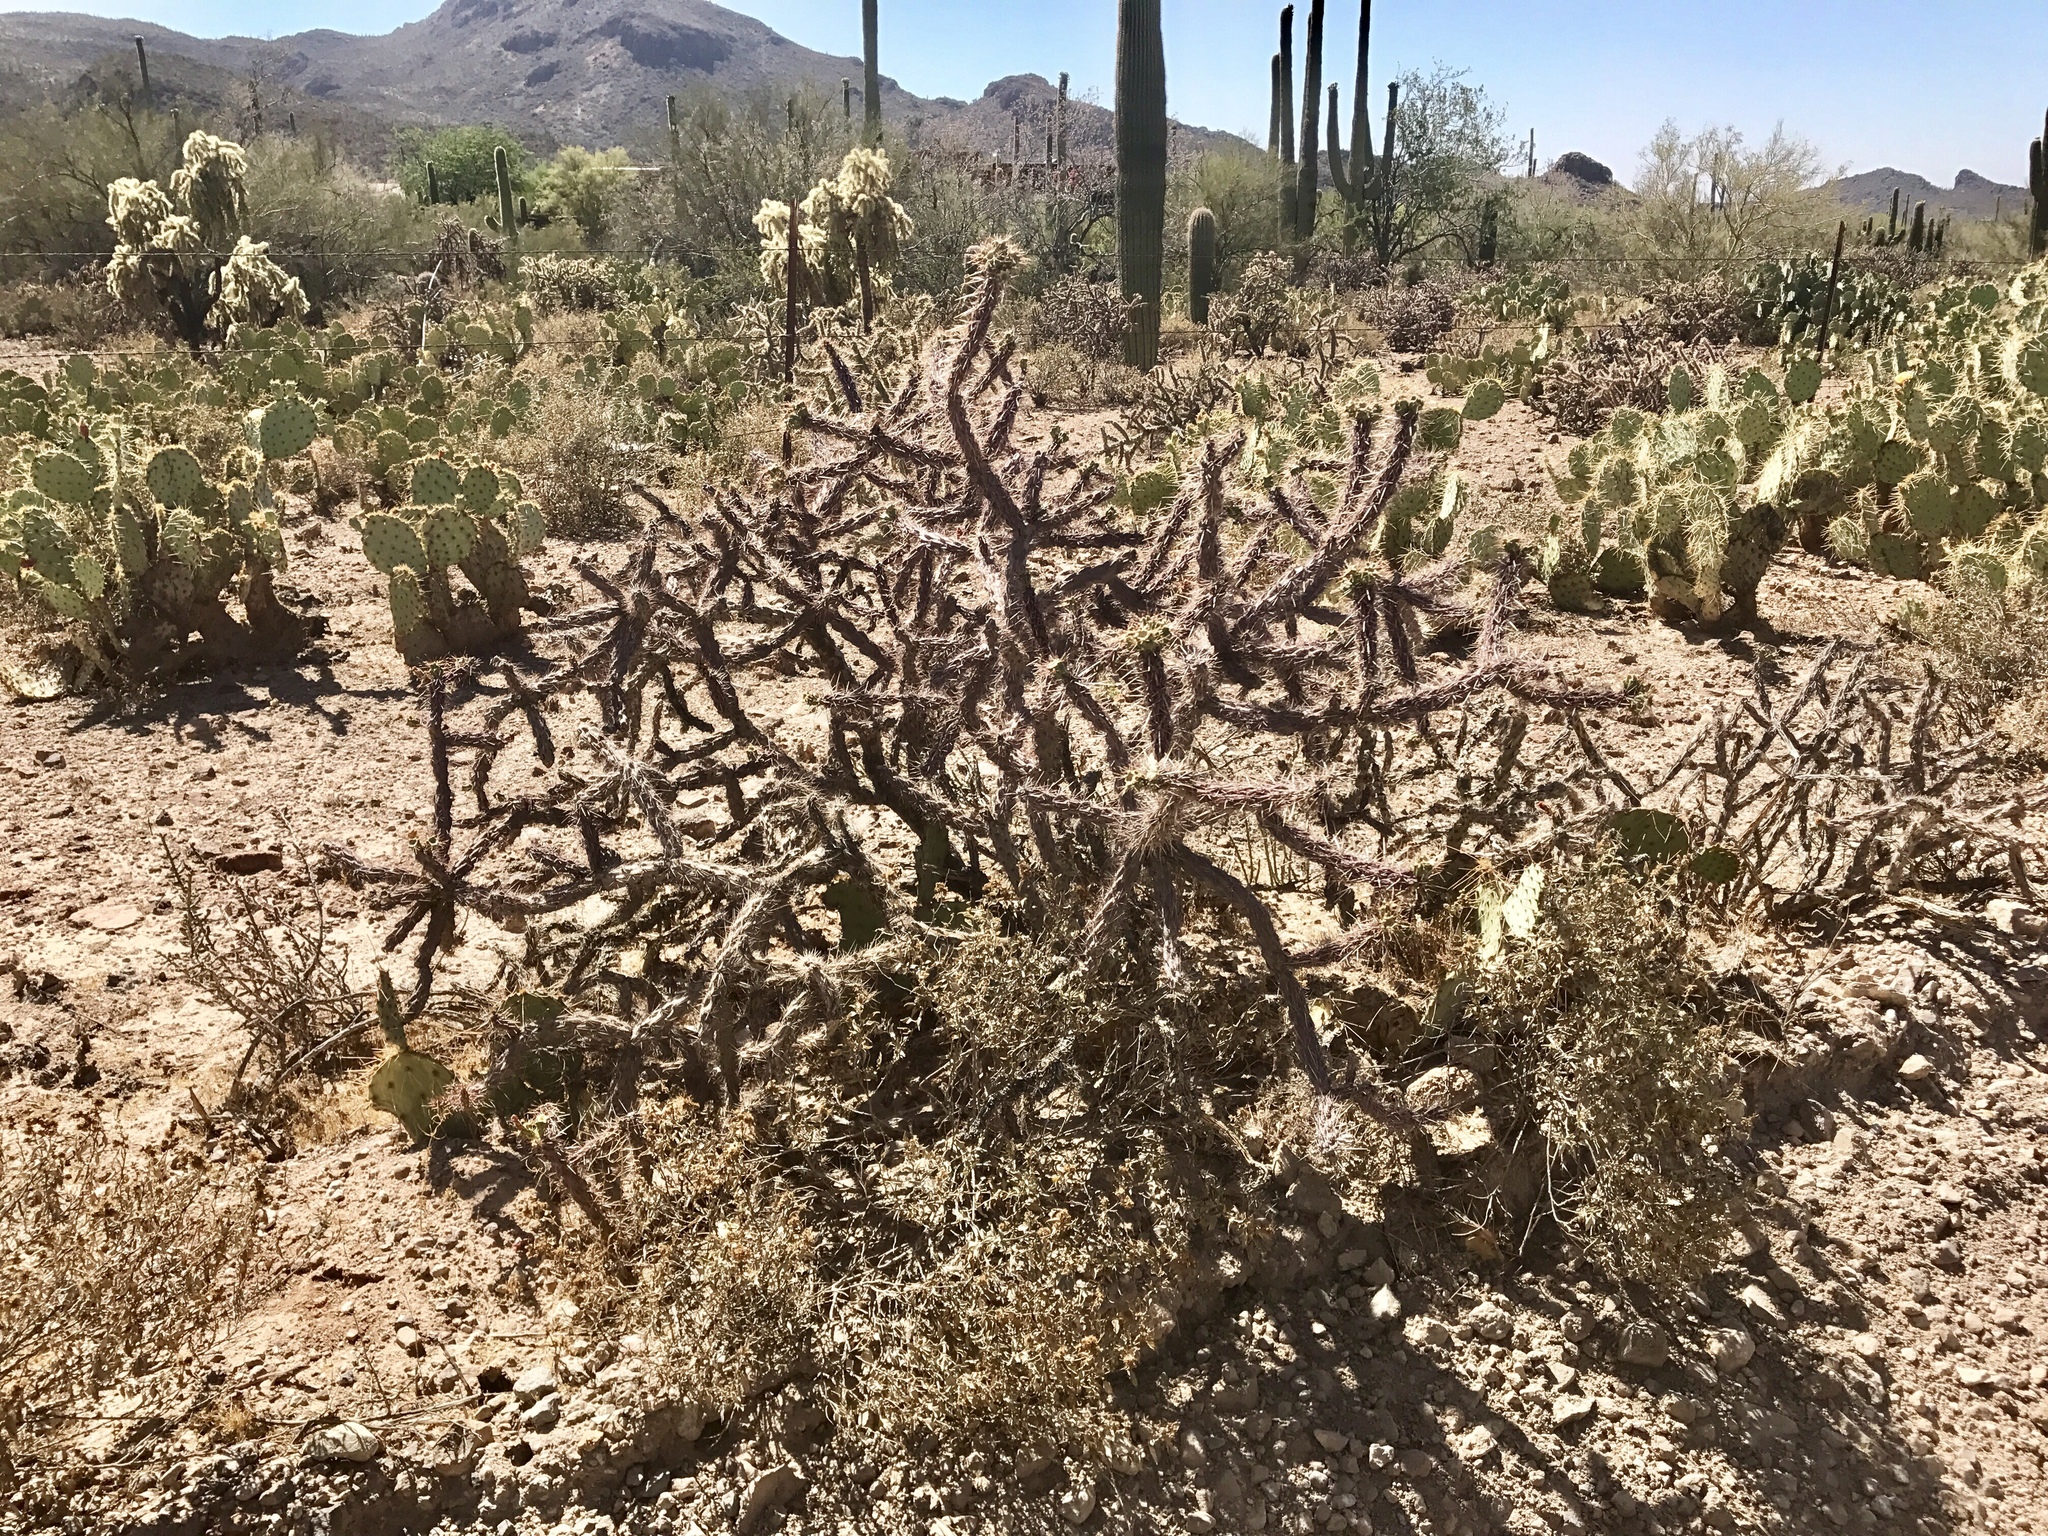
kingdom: Plantae
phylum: Tracheophyta
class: Magnoliopsida
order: Caryophyllales
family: Cactaceae
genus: Cylindropuntia
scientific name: Cylindropuntia acanthocarpa
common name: Buckhorn cholla
